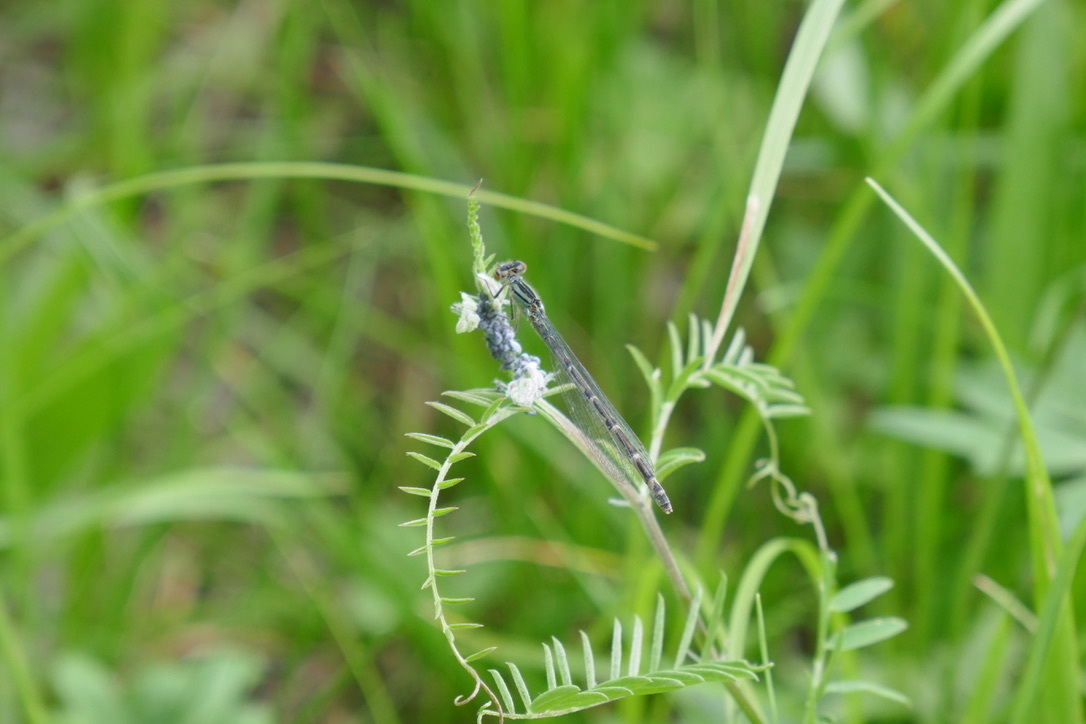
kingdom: Animalia
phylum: Arthropoda
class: Insecta
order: Odonata
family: Coenagrionidae
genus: Enallagma
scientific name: Enallagma cyathigerum
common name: Common blue damselfly
